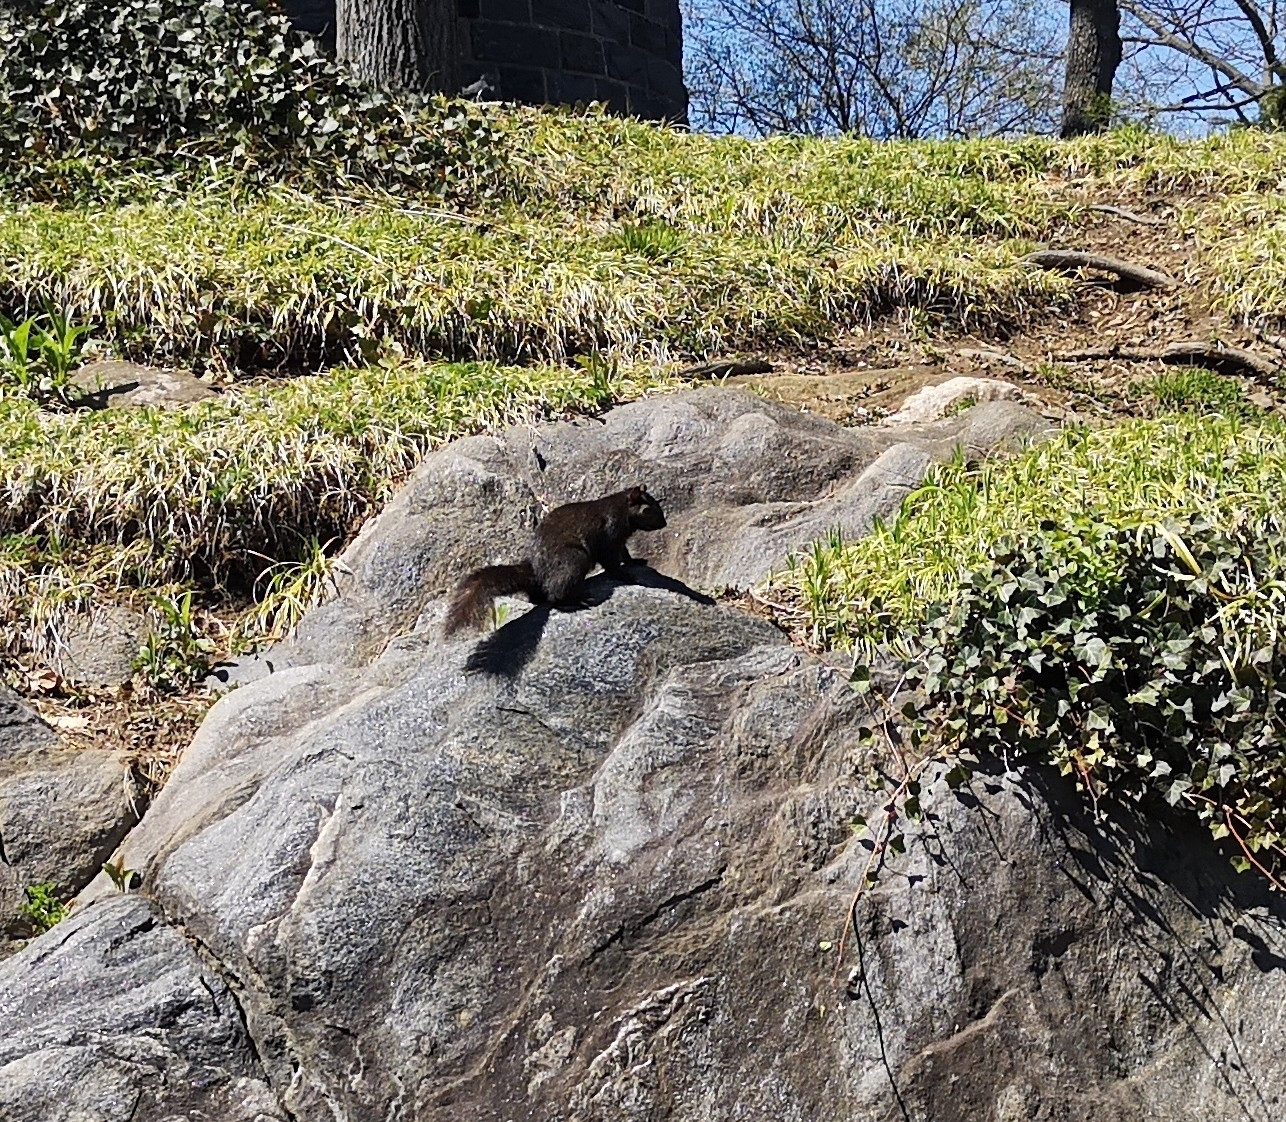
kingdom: Animalia
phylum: Chordata
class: Mammalia
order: Rodentia
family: Sciuridae
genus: Sciurus
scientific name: Sciurus carolinensis
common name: Eastern gray squirrel
